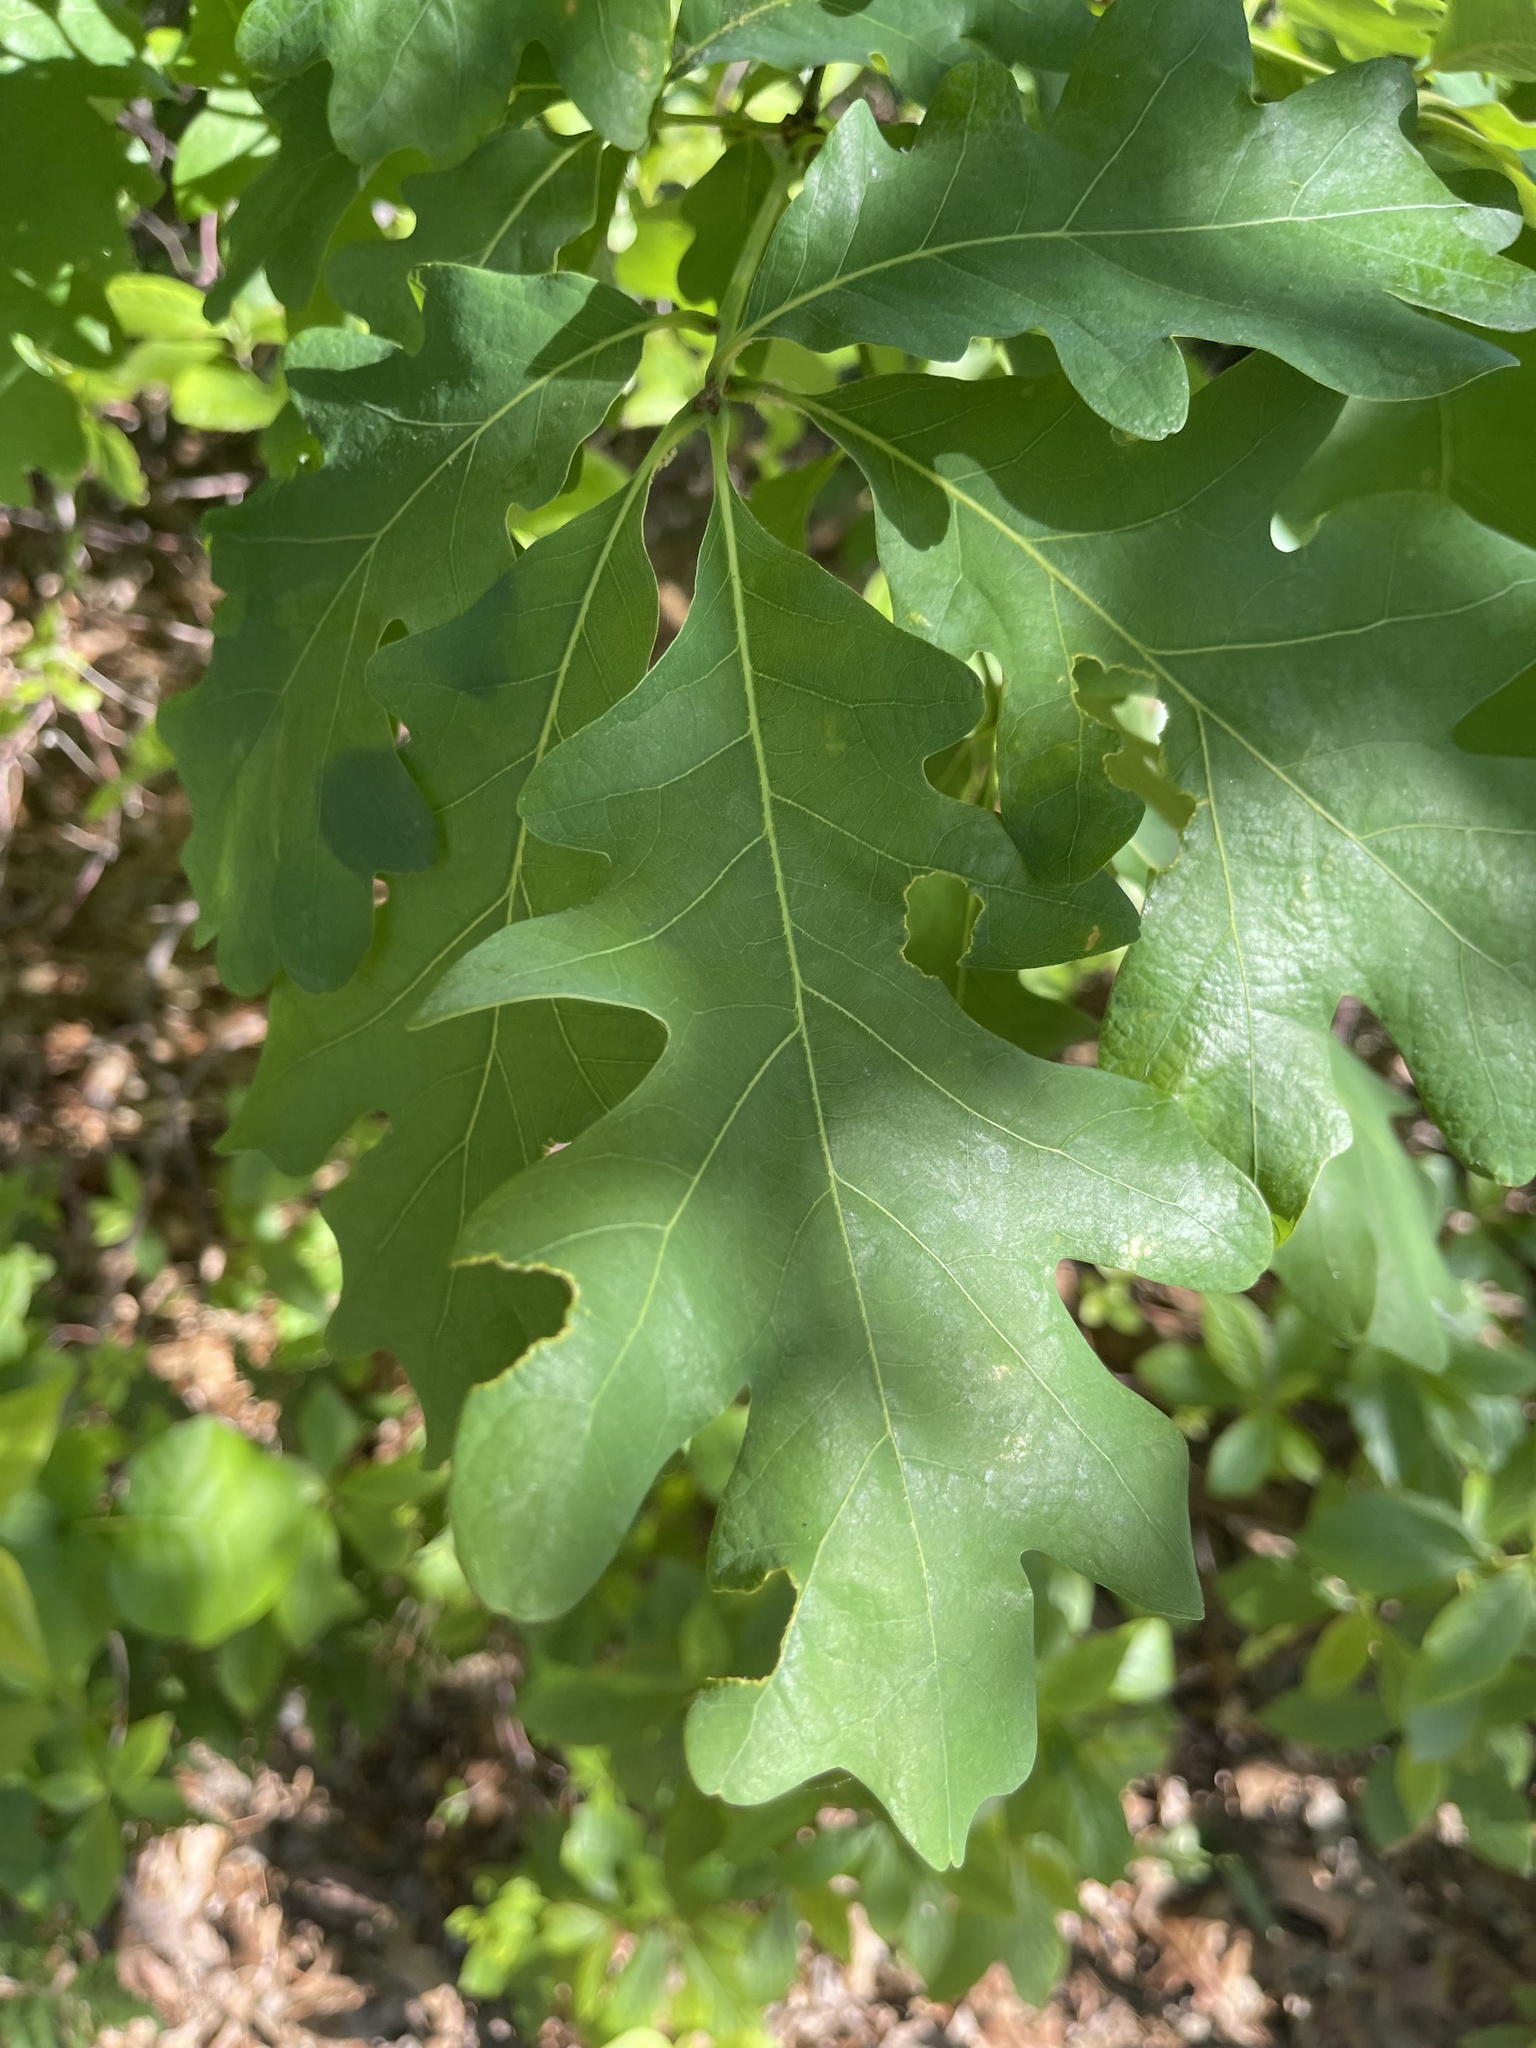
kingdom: Plantae
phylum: Tracheophyta
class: Magnoliopsida
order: Fagales
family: Fagaceae
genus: Quercus
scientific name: Quercus alba
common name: White oak
